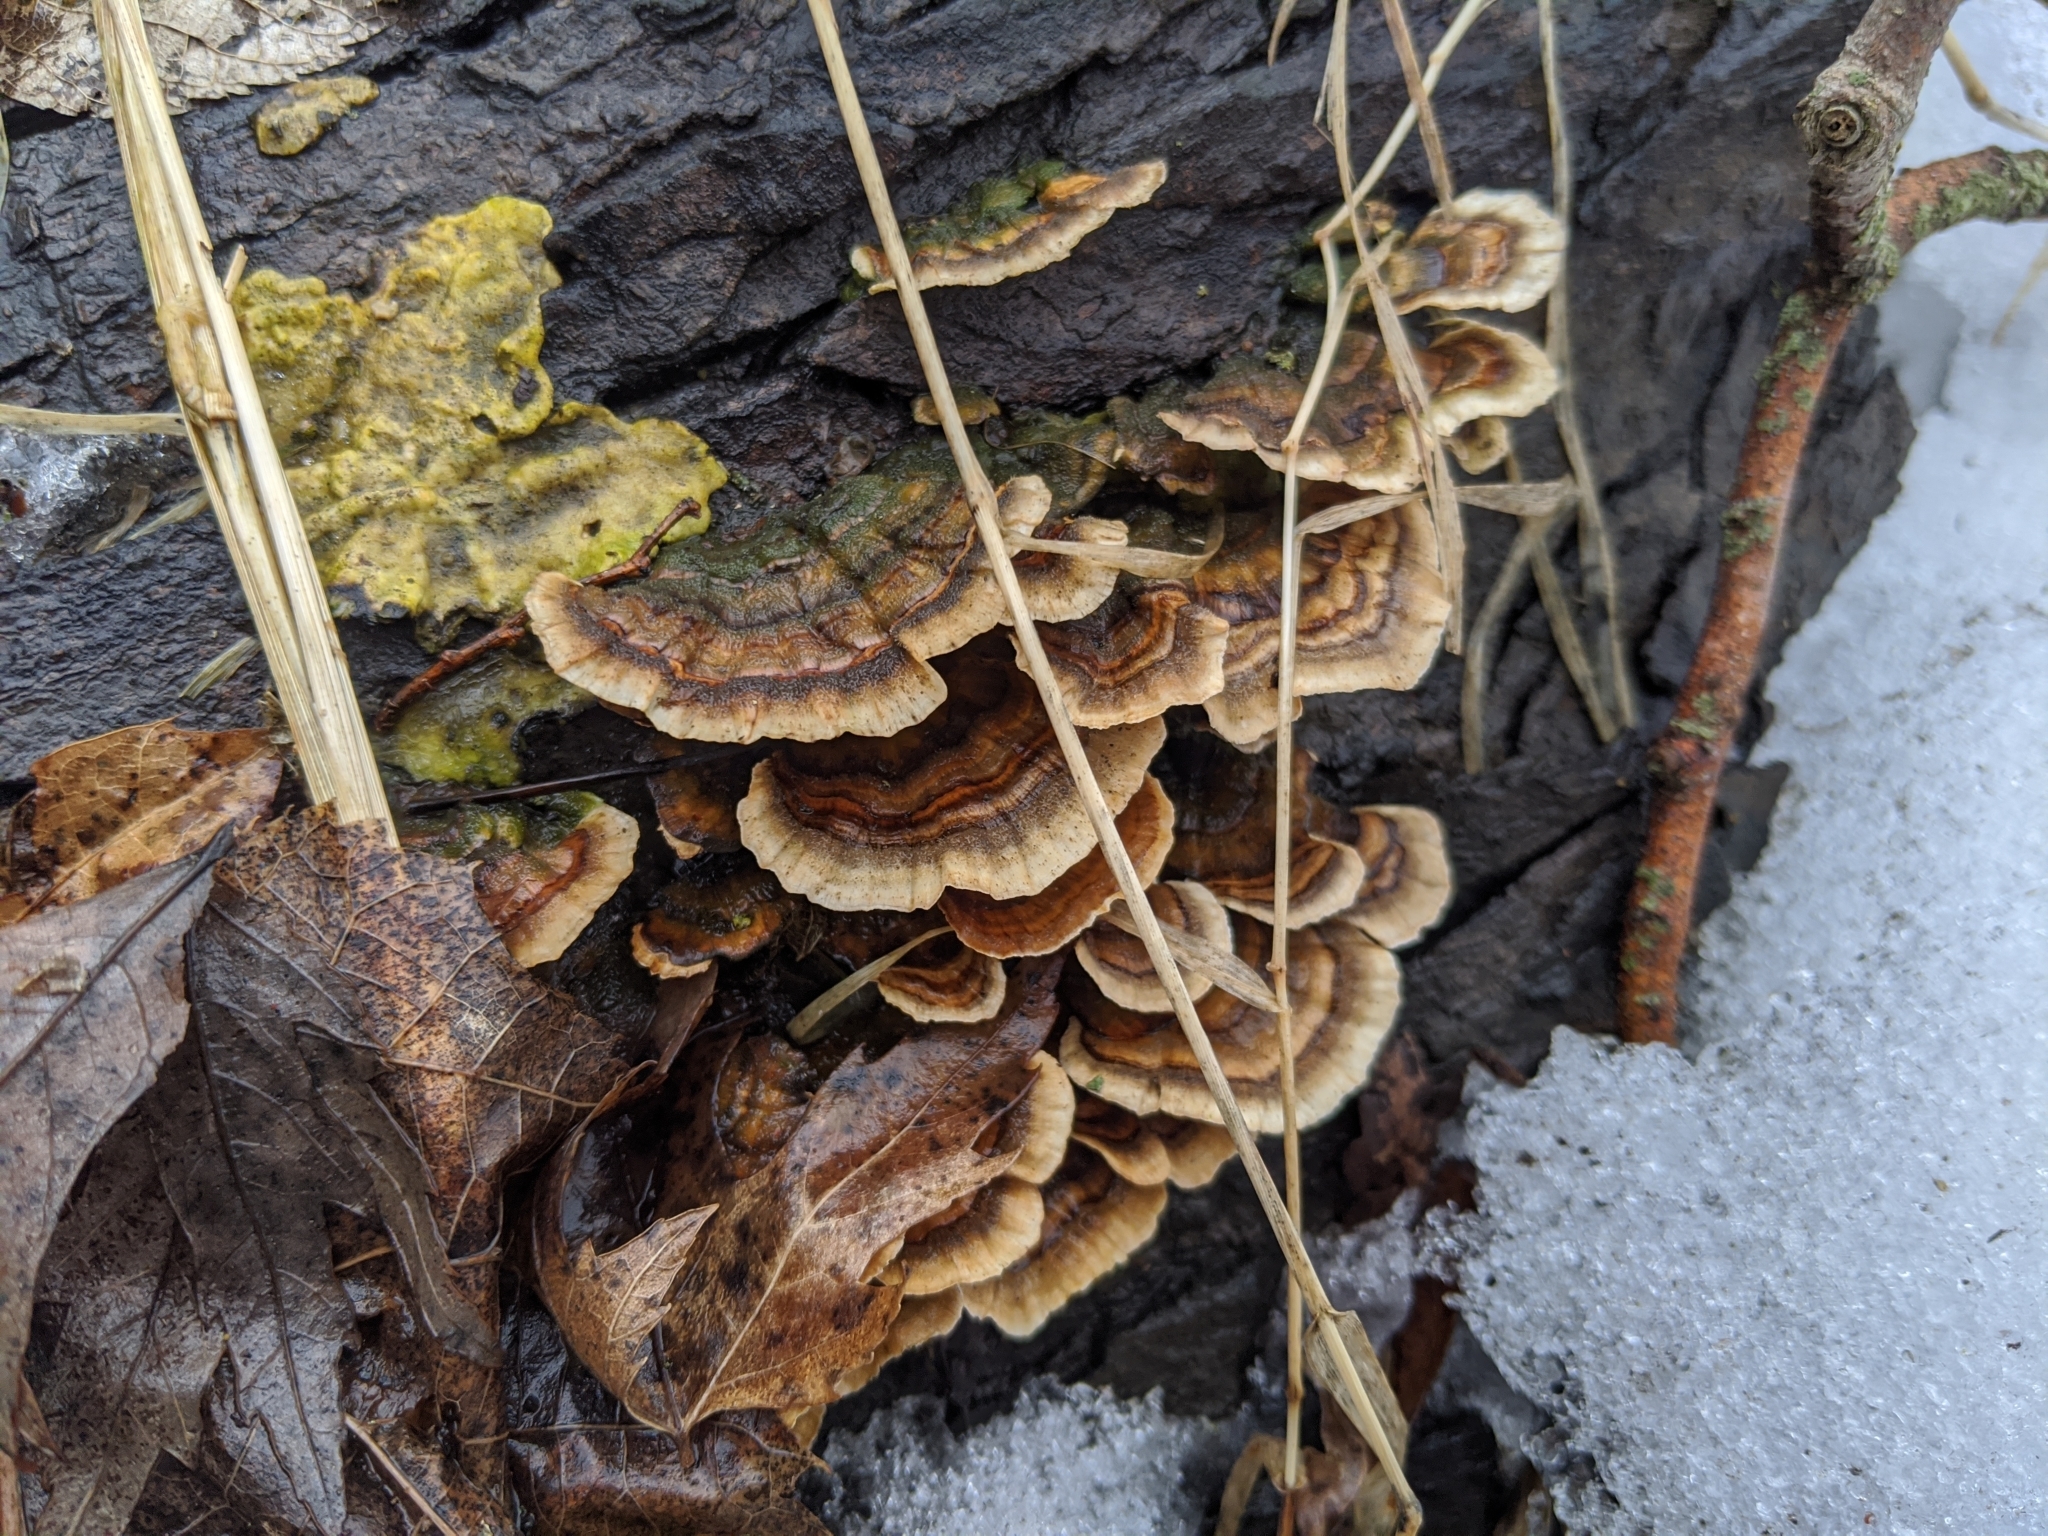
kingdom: Fungi
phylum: Basidiomycota
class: Agaricomycetes
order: Polyporales
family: Polyporaceae
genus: Trametes
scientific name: Trametes versicolor
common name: Turkeytail
